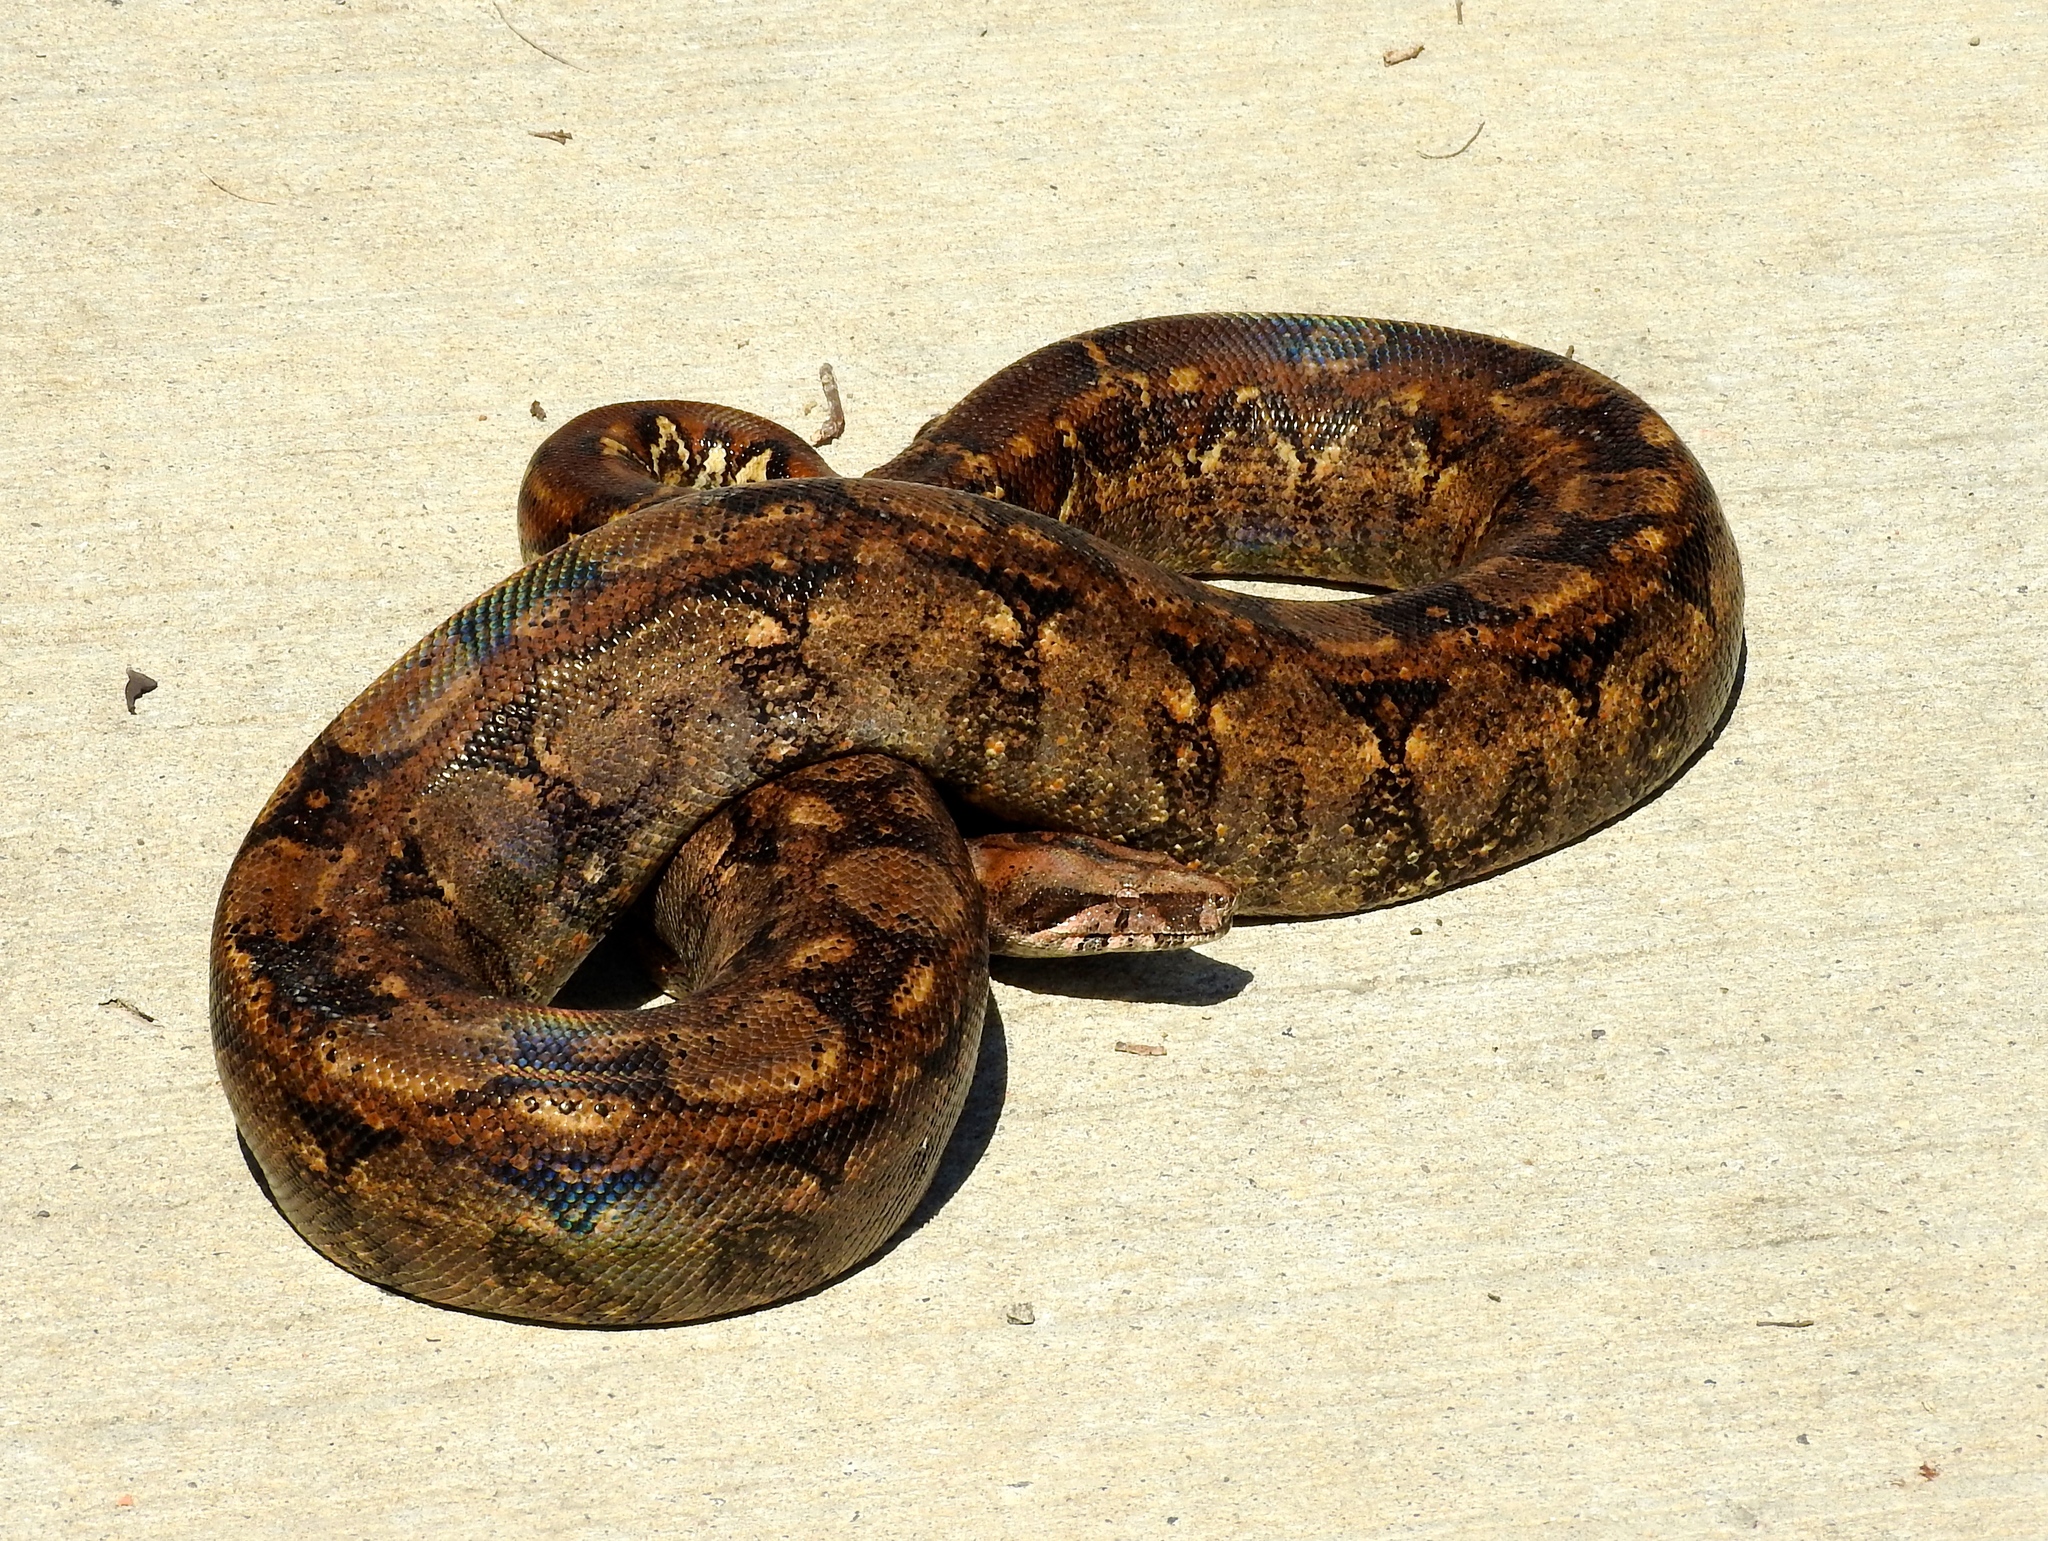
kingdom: Animalia
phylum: Chordata
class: Squamata
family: Boidae
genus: Boa
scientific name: Boa
